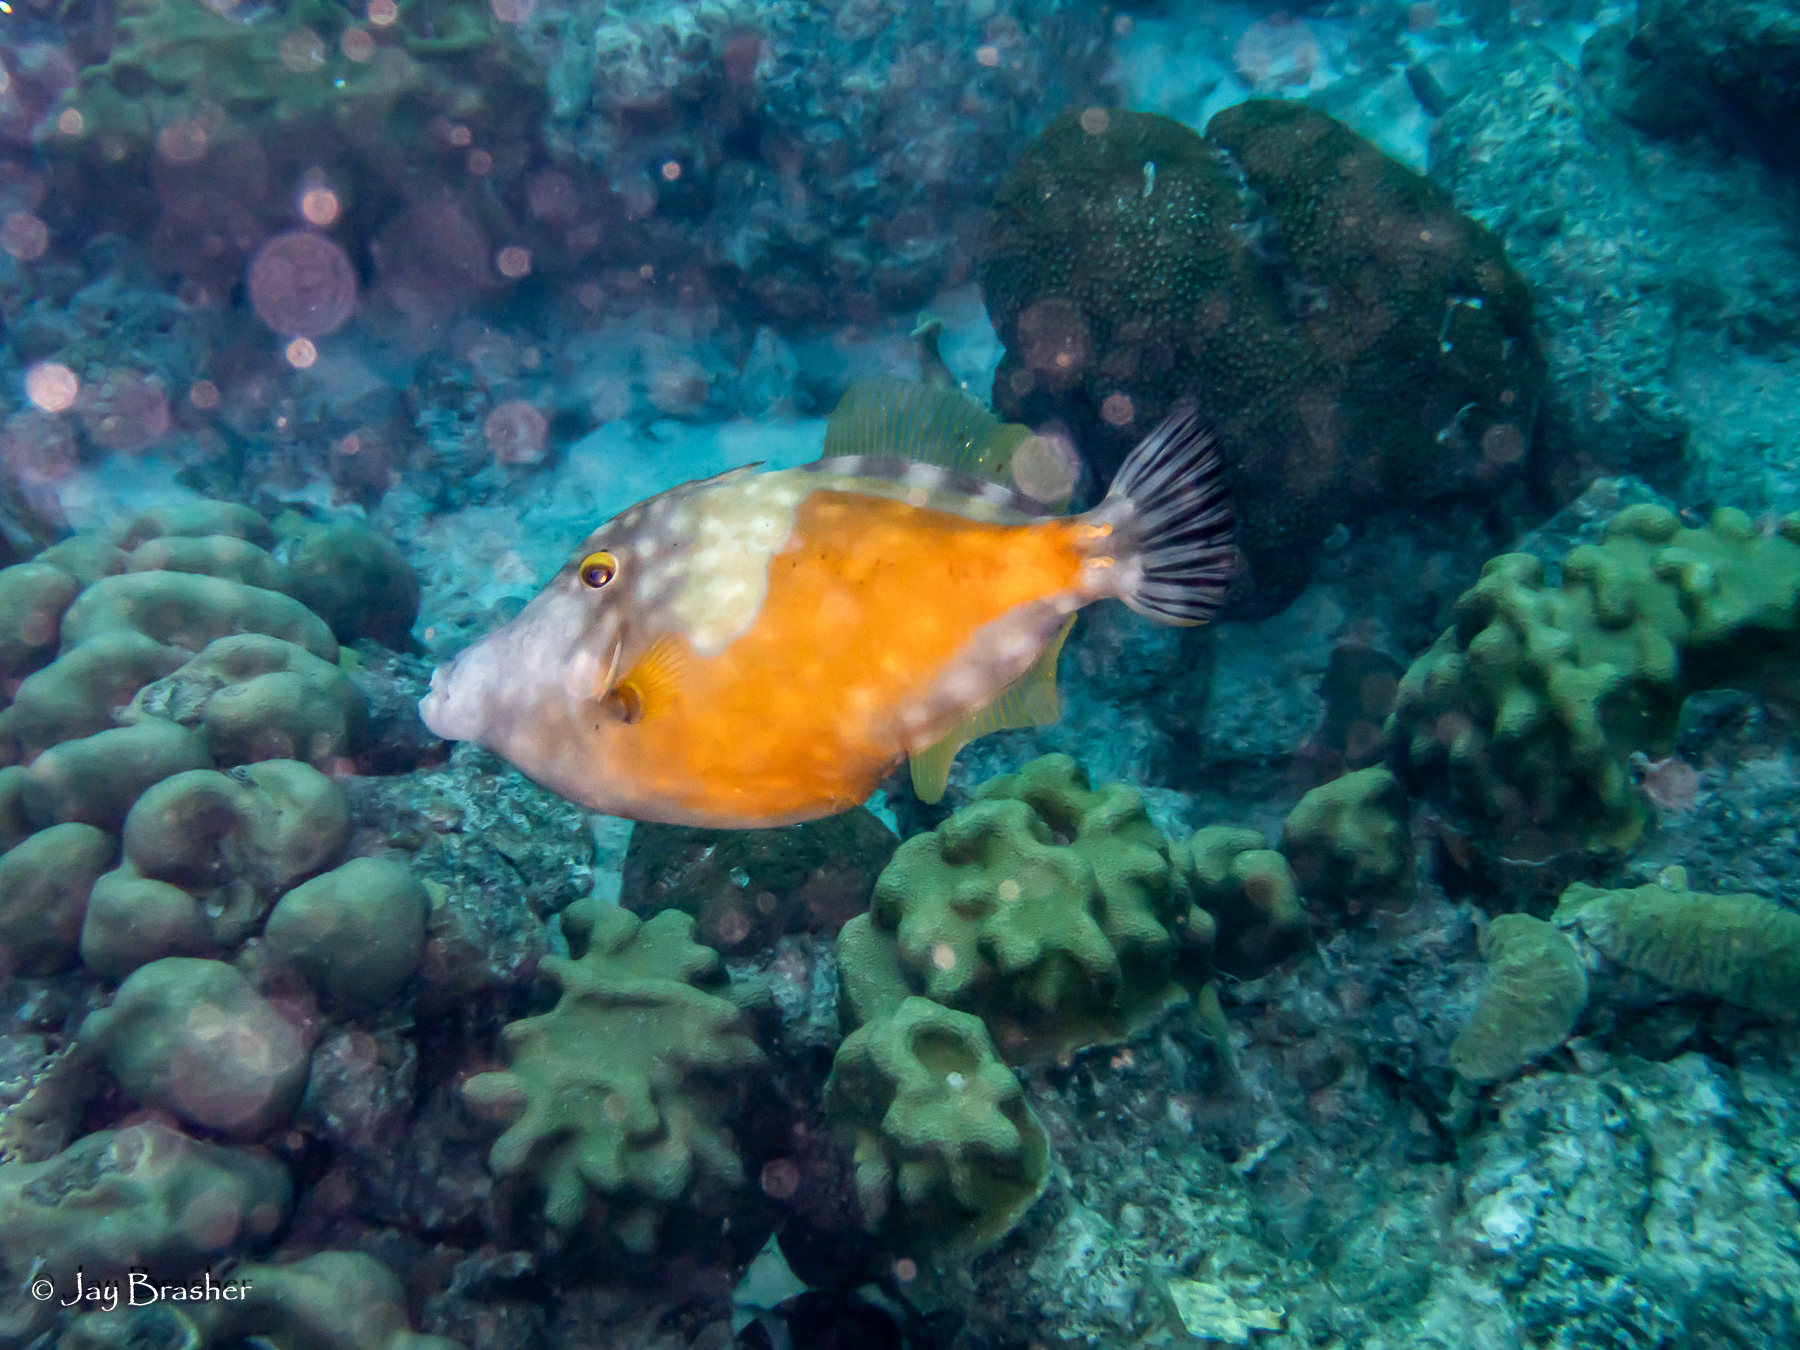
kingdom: Animalia
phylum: Chordata
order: Tetraodontiformes
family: Monacanthidae
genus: Cantherhines
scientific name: Cantherhines macrocerus
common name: Whitespotted filefish
